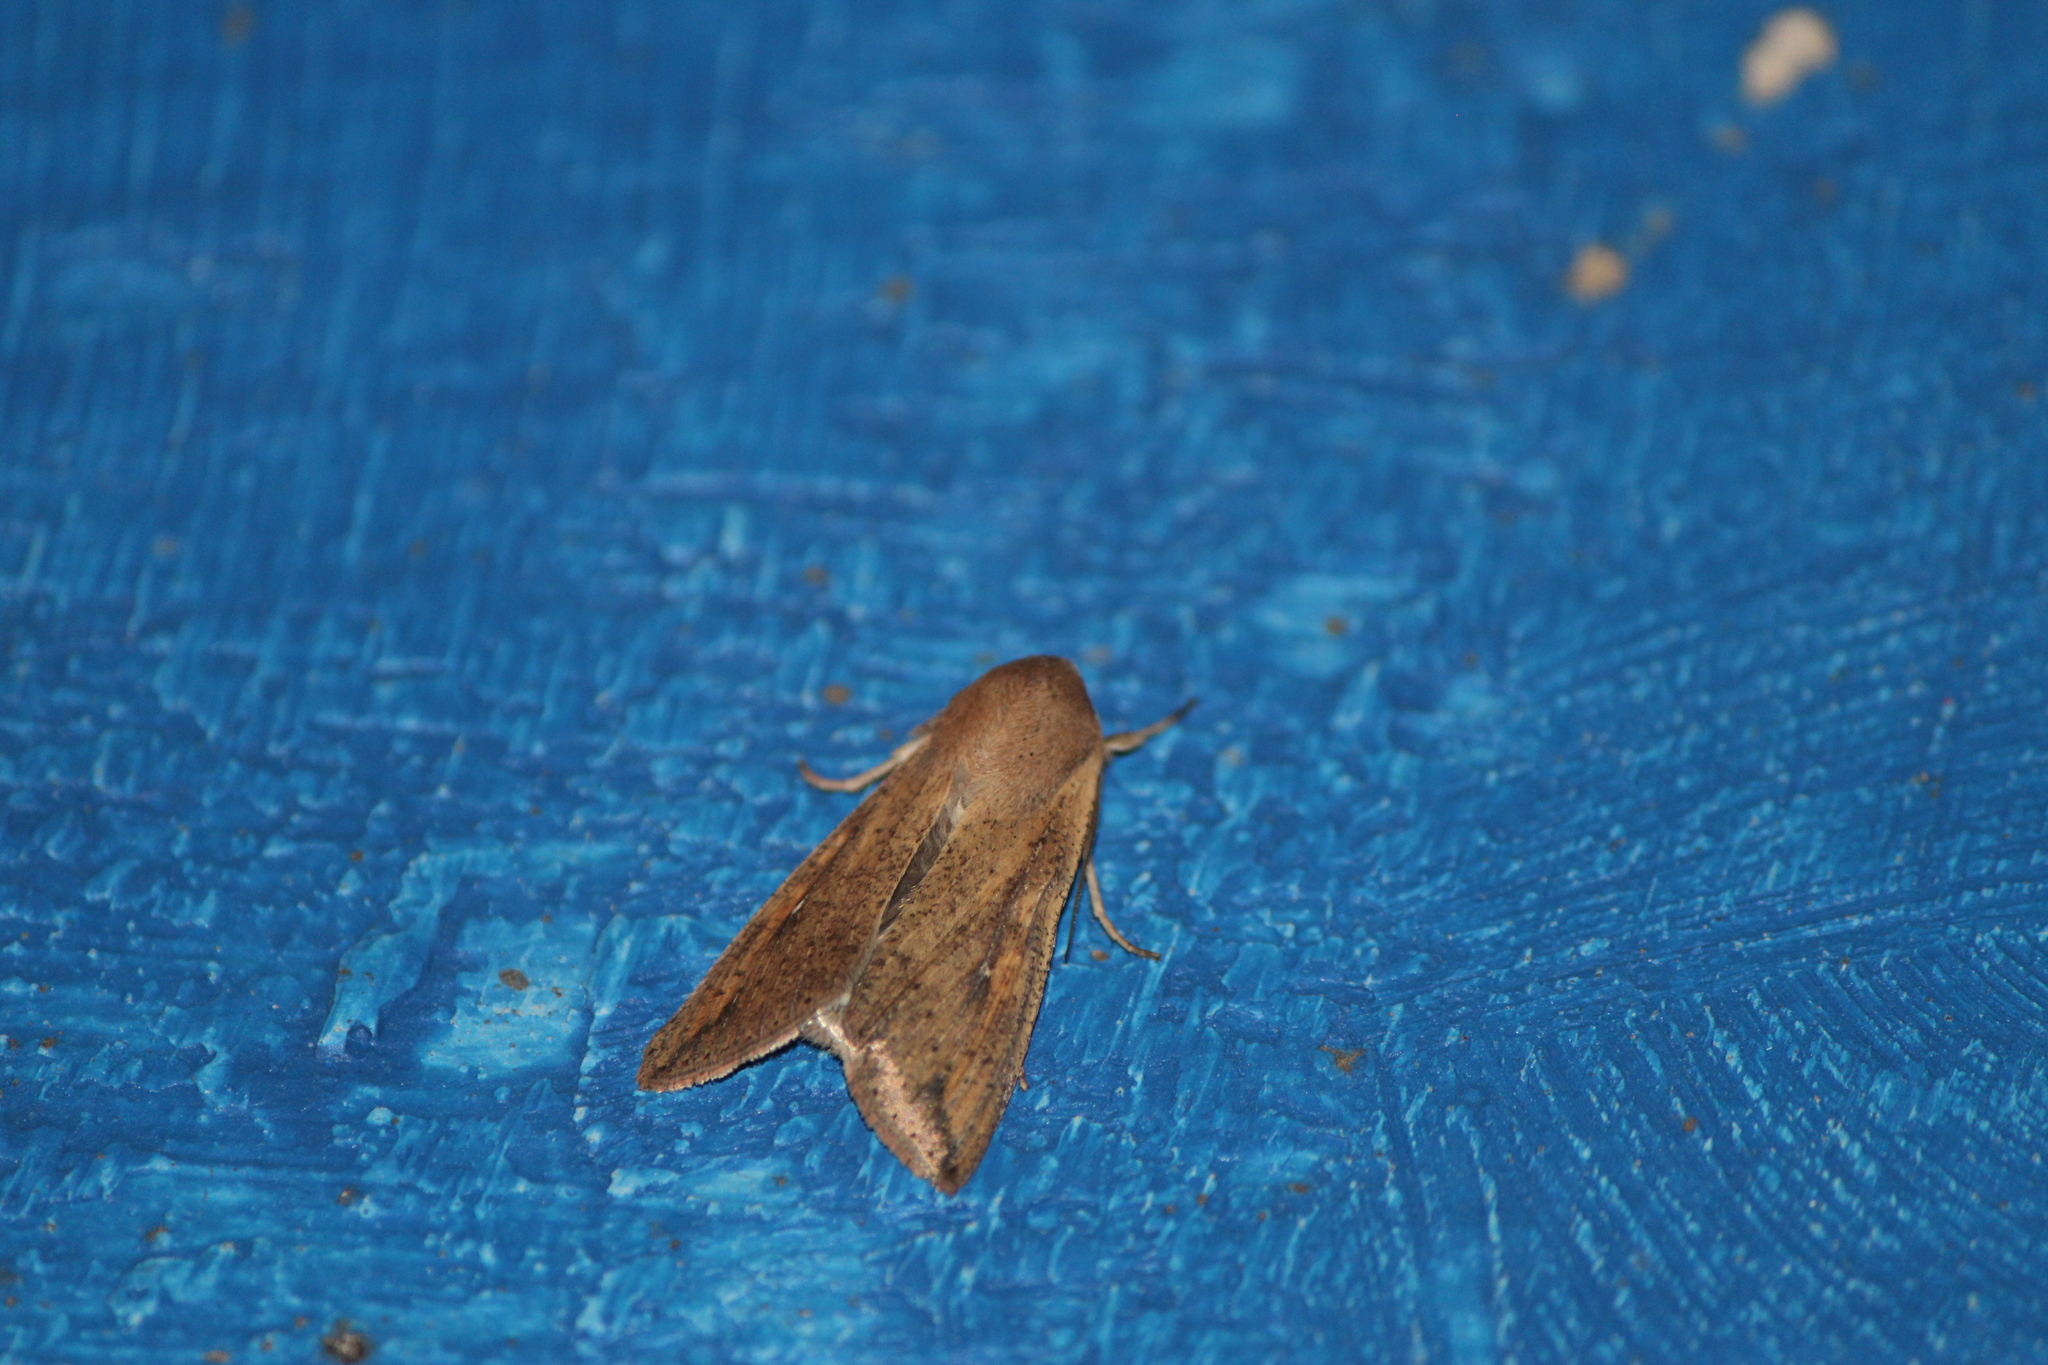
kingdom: Animalia
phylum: Arthropoda
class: Insecta
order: Lepidoptera
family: Noctuidae
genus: Mythimna
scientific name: Mythimna unipuncta
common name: White-speck
